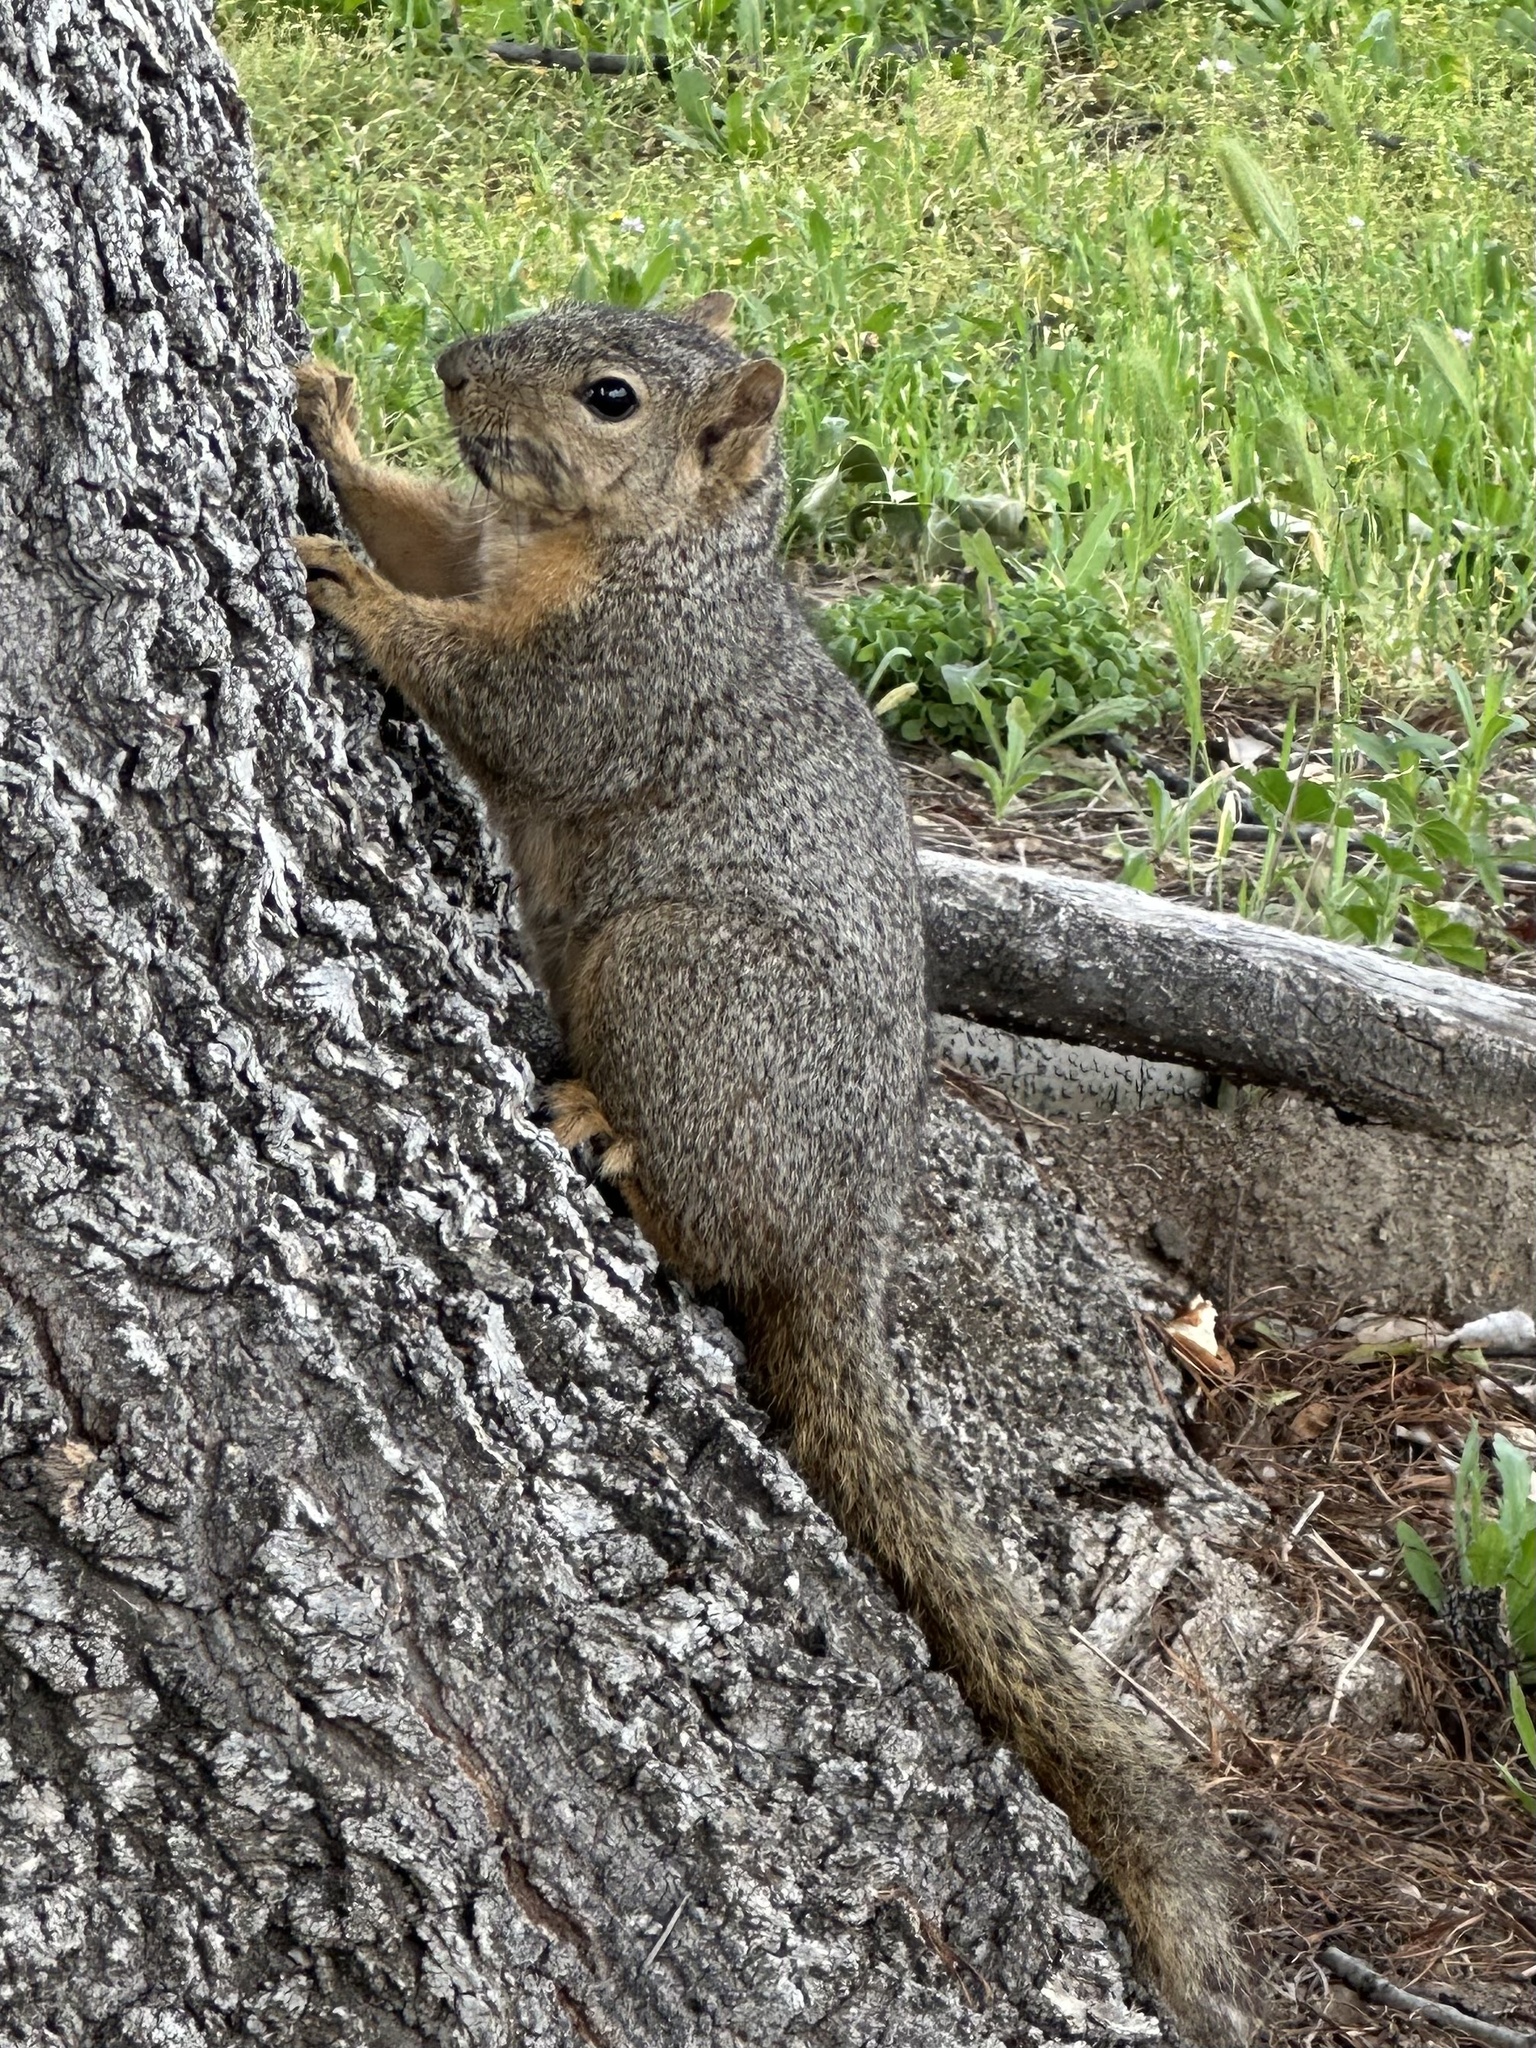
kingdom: Animalia
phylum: Chordata
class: Mammalia
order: Rodentia
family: Sciuridae
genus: Sciurus
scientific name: Sciurus niger
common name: Fox squirrel
